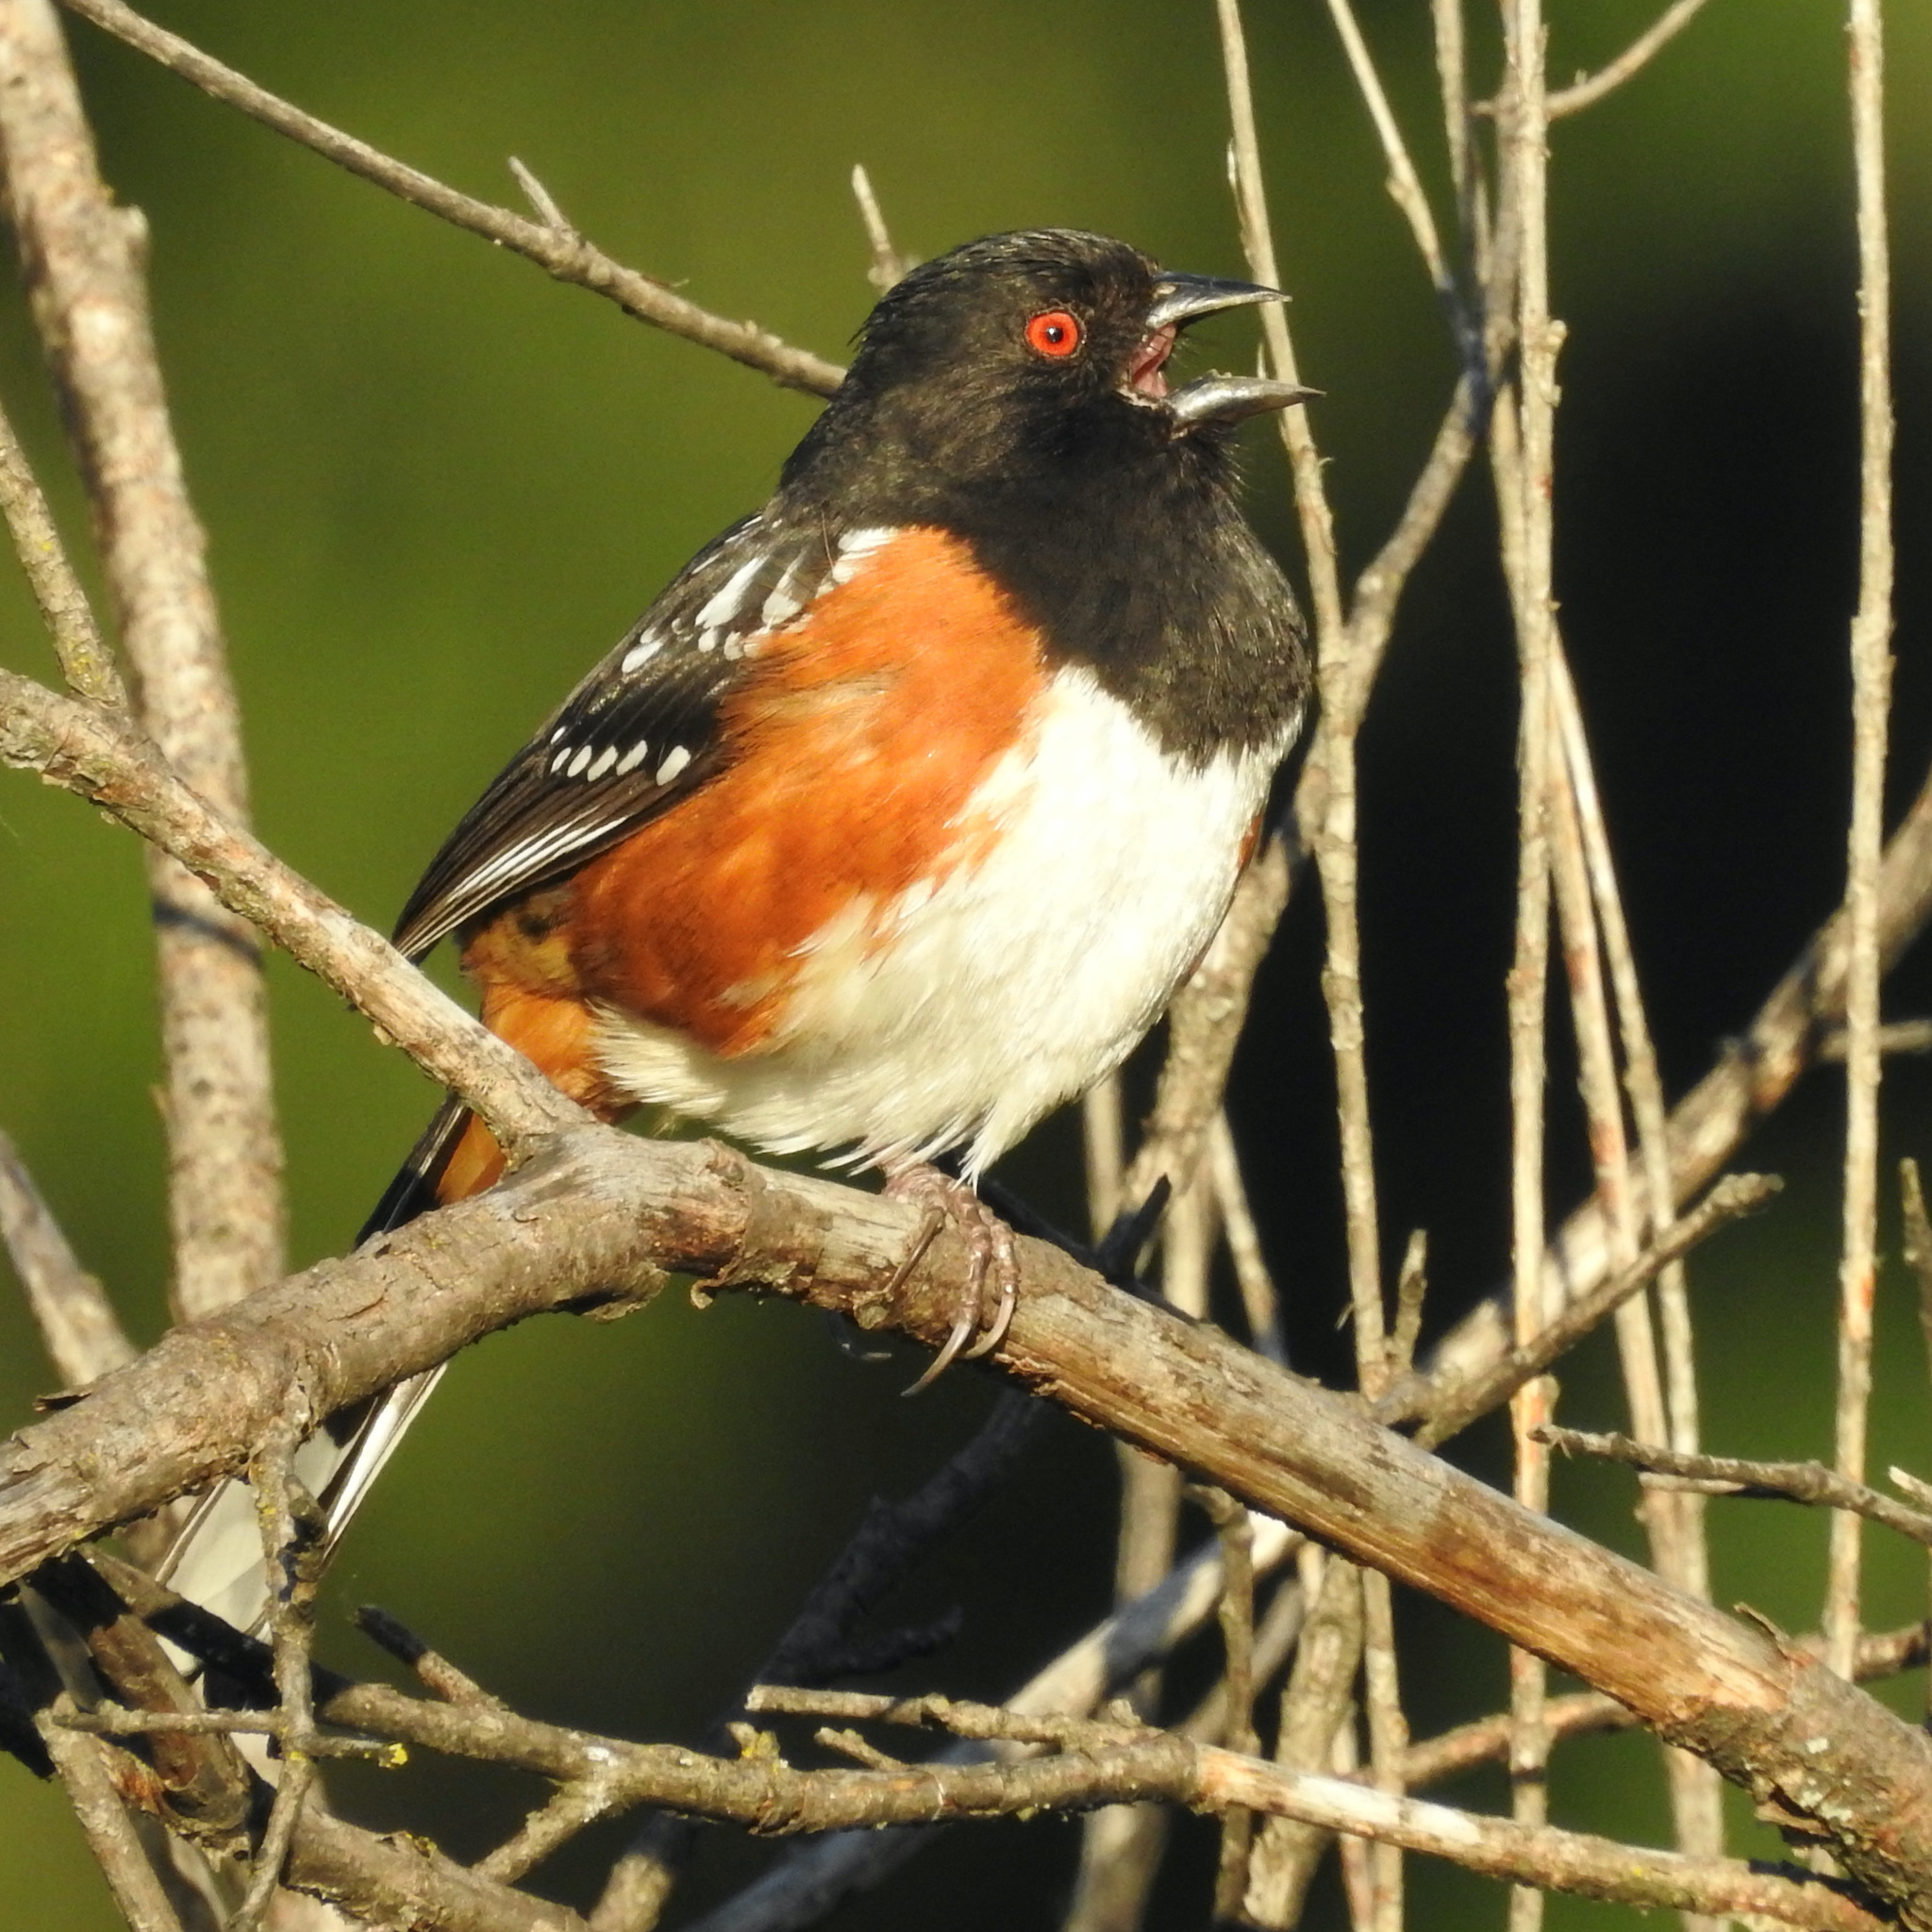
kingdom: Animalia
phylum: Chordata
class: Aves
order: Passeriformes
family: Passerellidae
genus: Pipilo
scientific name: Pipilo maculatus
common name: Spotted towhee
